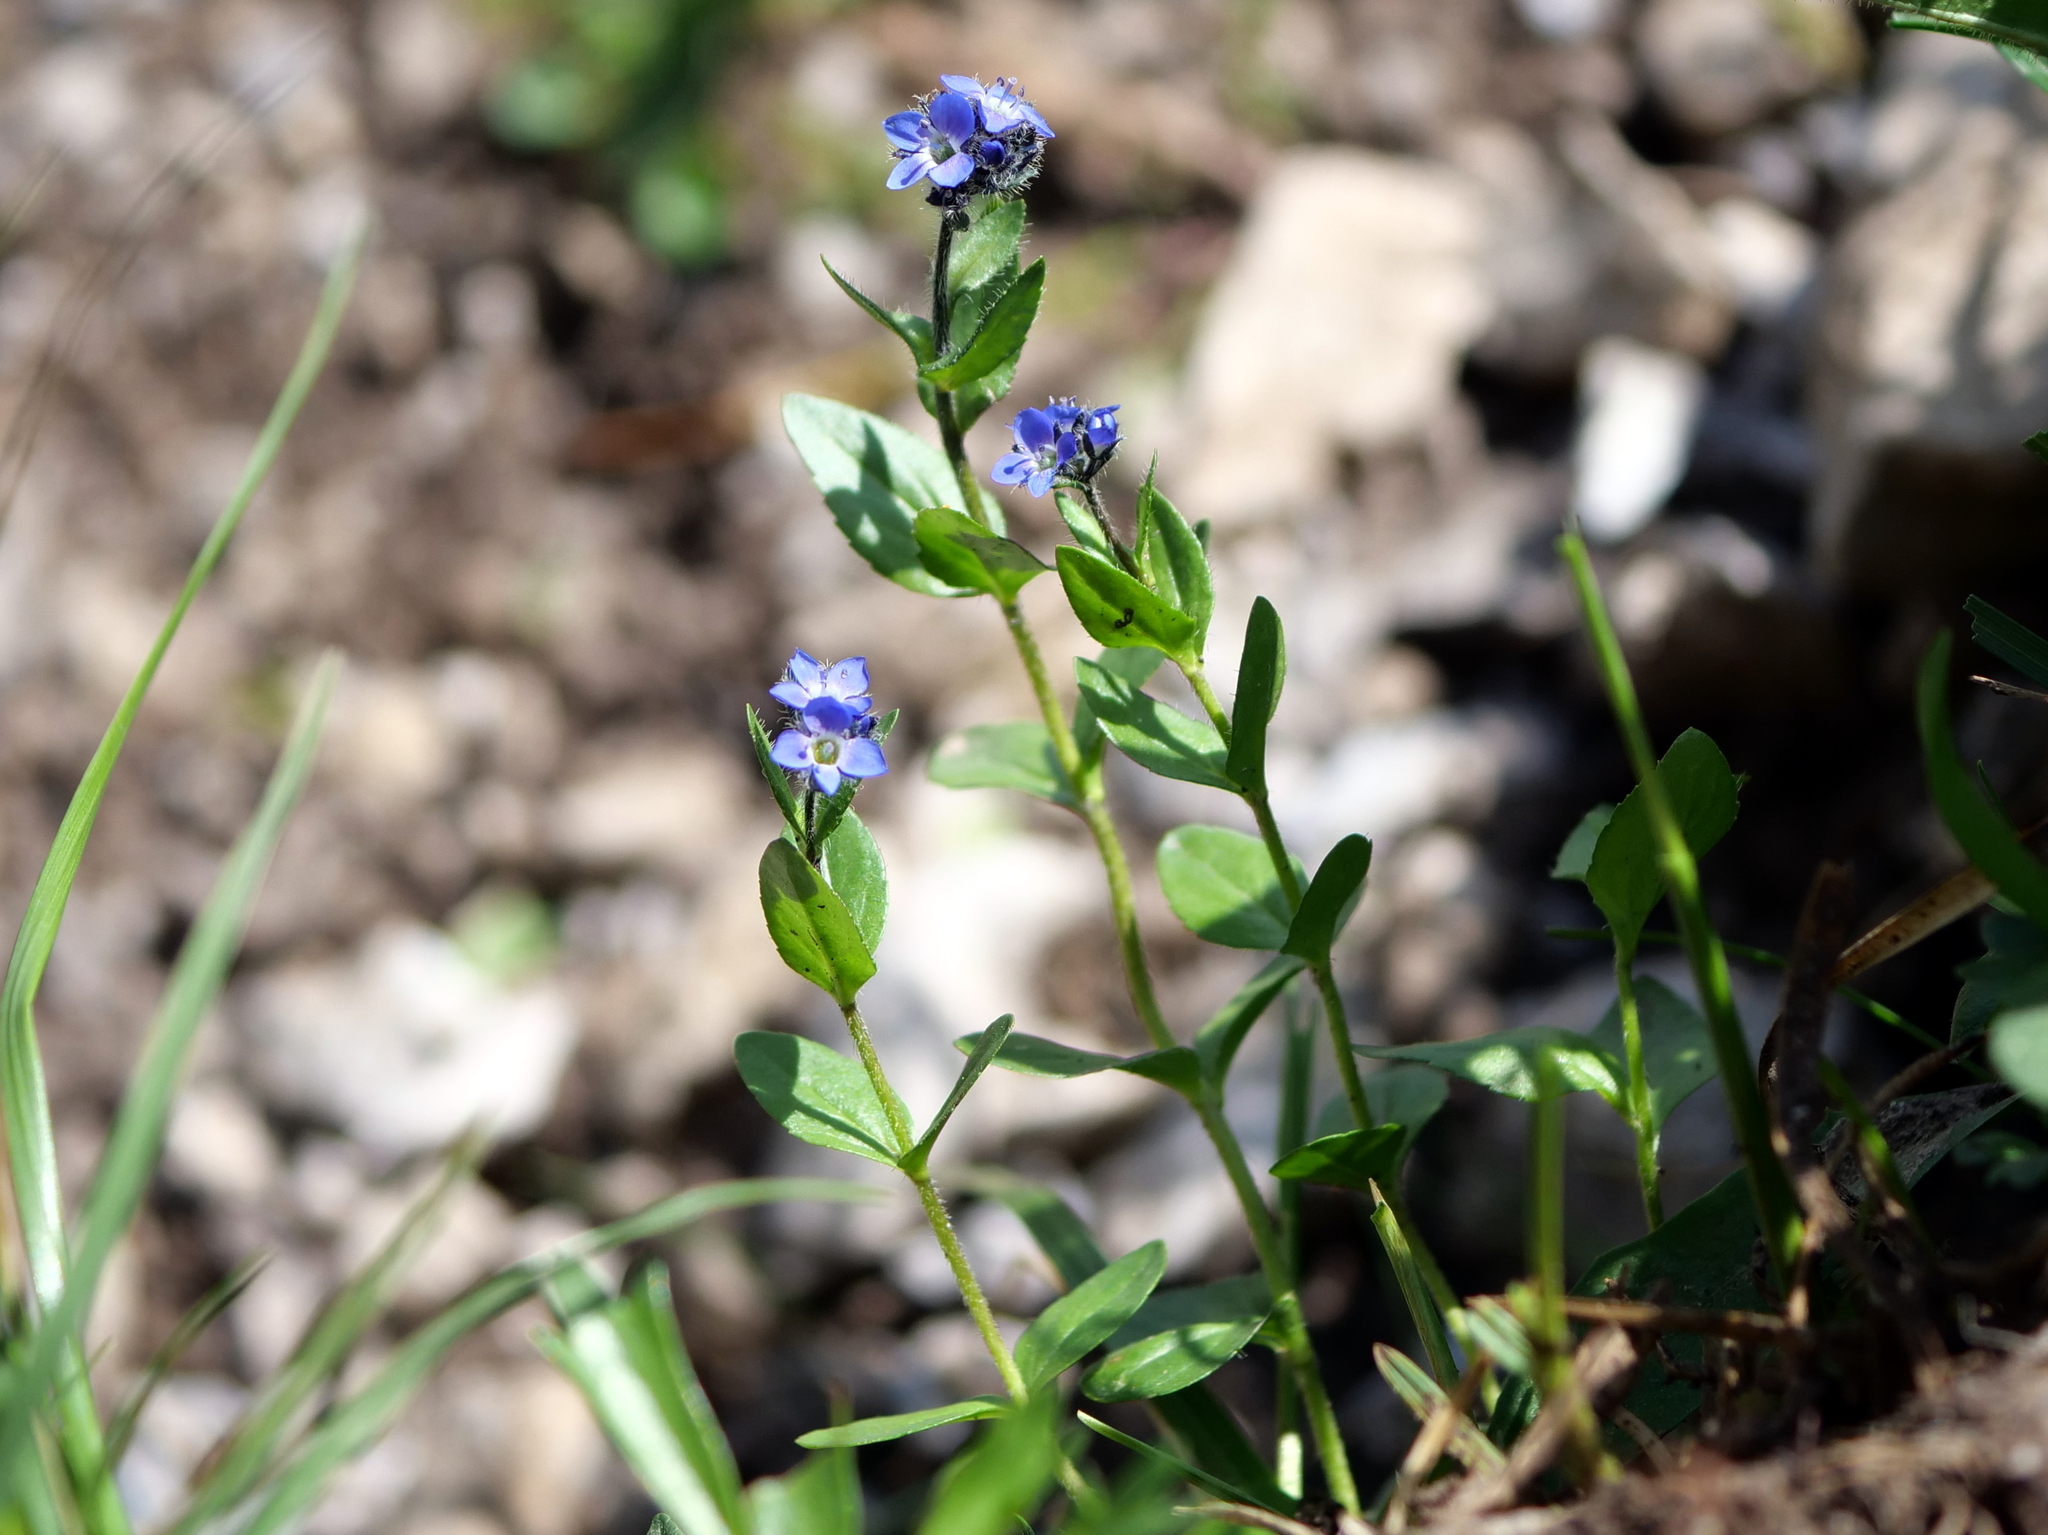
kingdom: Plantae
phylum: Tracheophyta
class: Magnoliopsida
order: Lamiales
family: Plantaginaceae
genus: Veronica
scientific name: Veronica alpina
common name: Alpine speedwell
